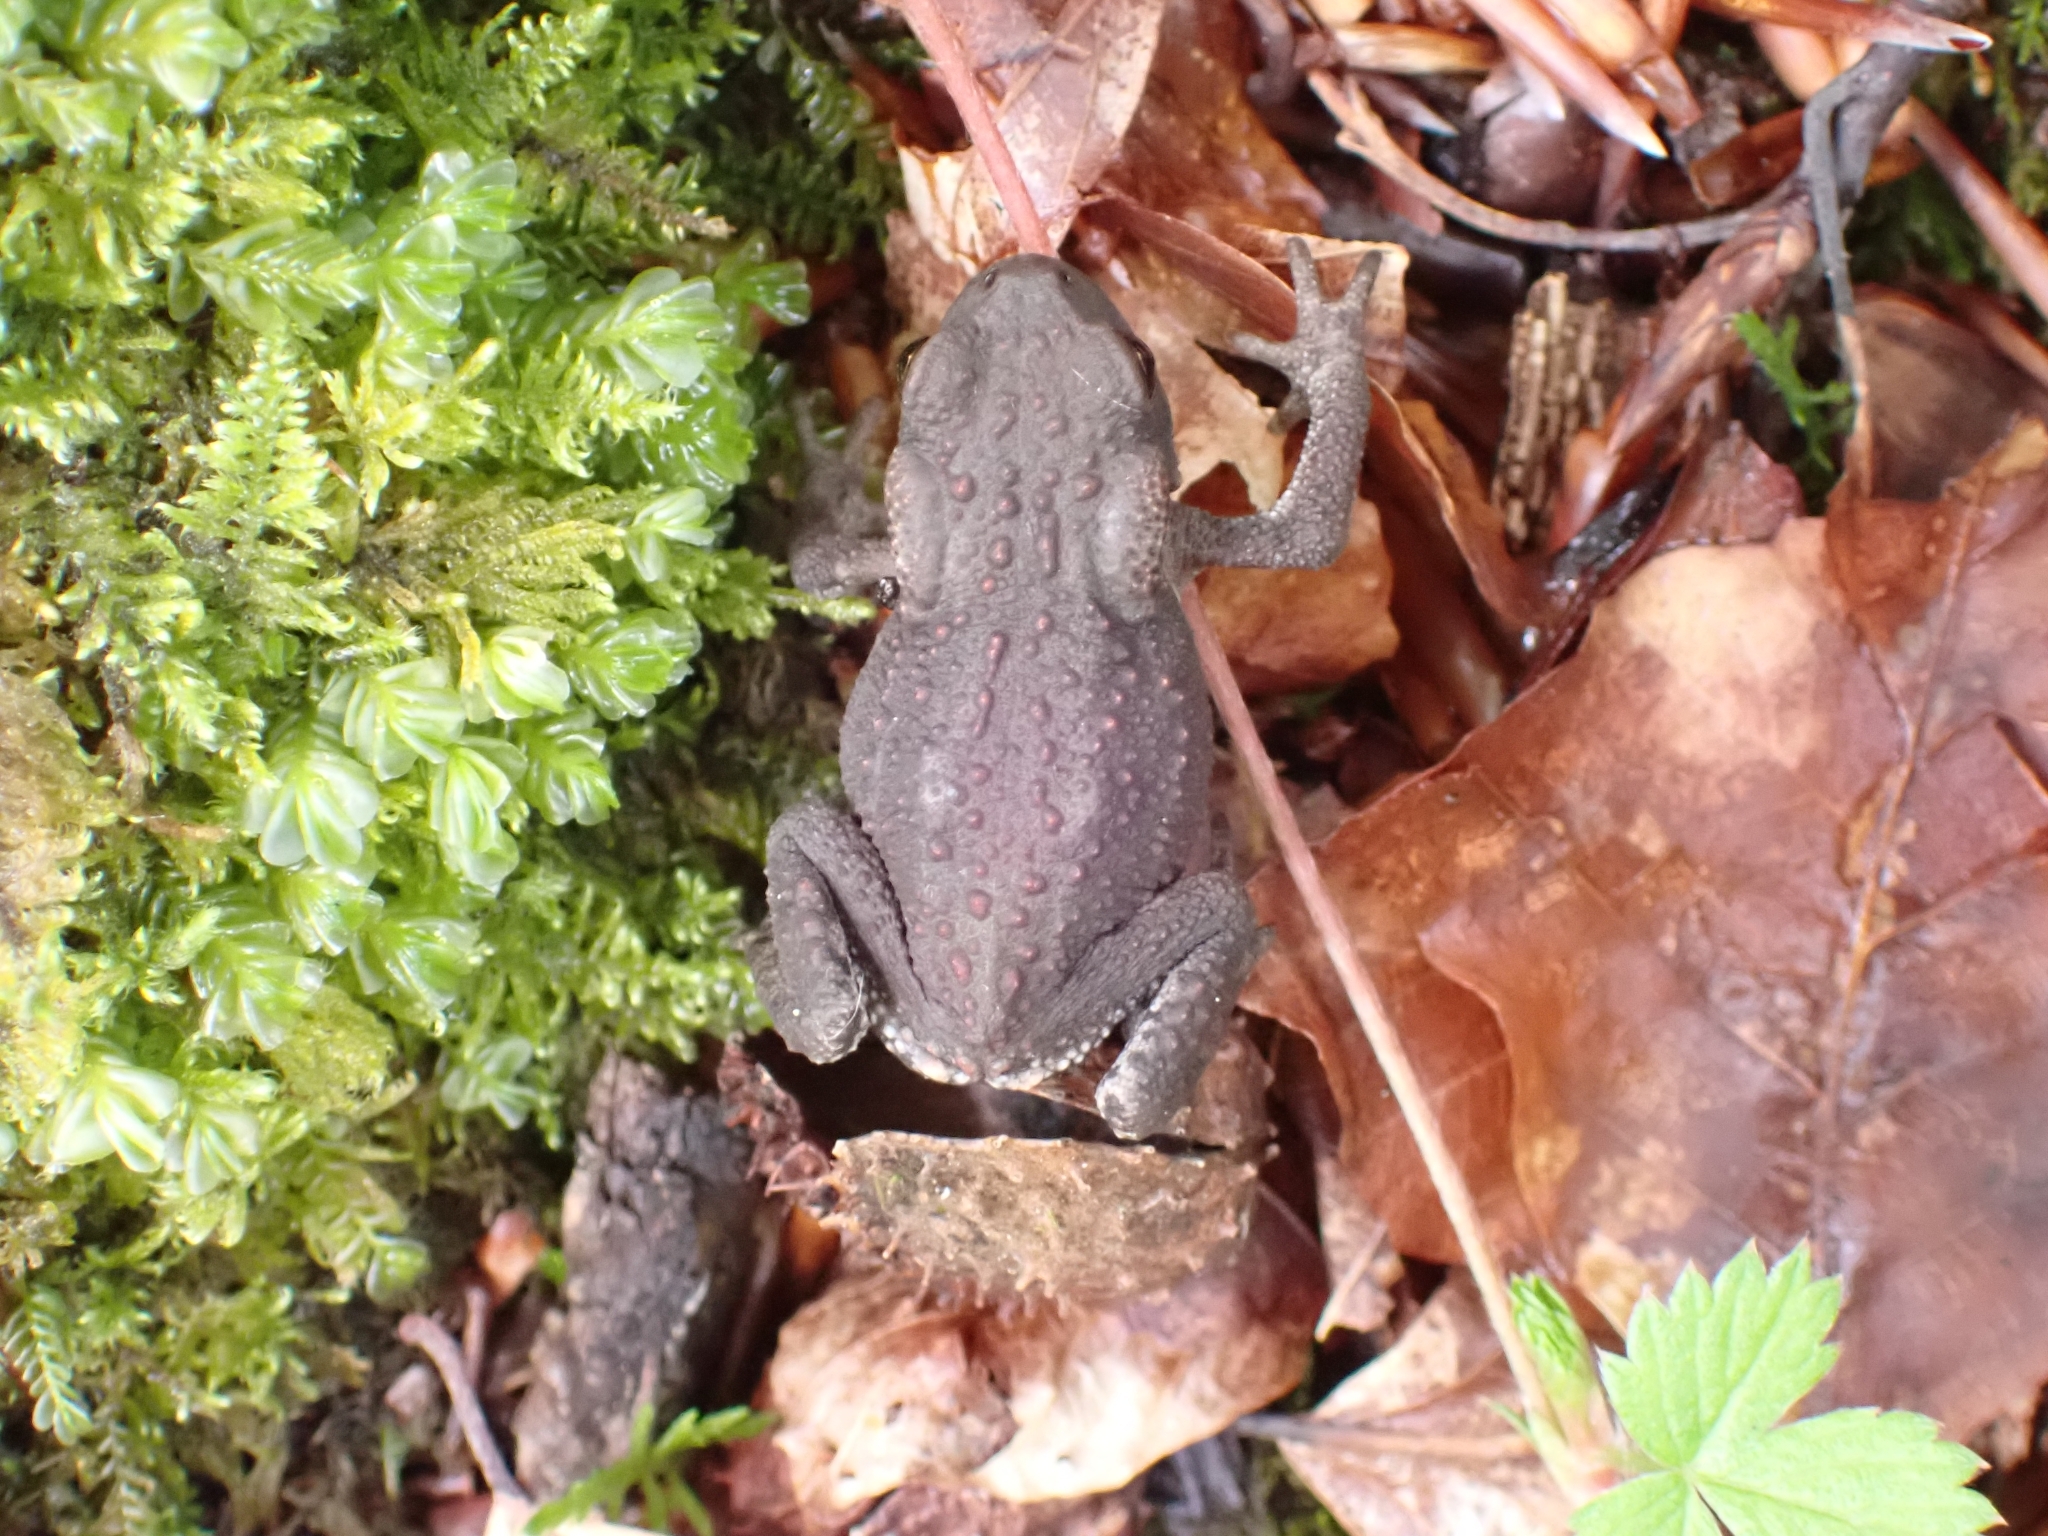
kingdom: Animalia
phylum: Chordata
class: Amphibia
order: Anura
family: Bufonidae
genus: Bufo
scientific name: Bufo bufo
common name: Common toad
